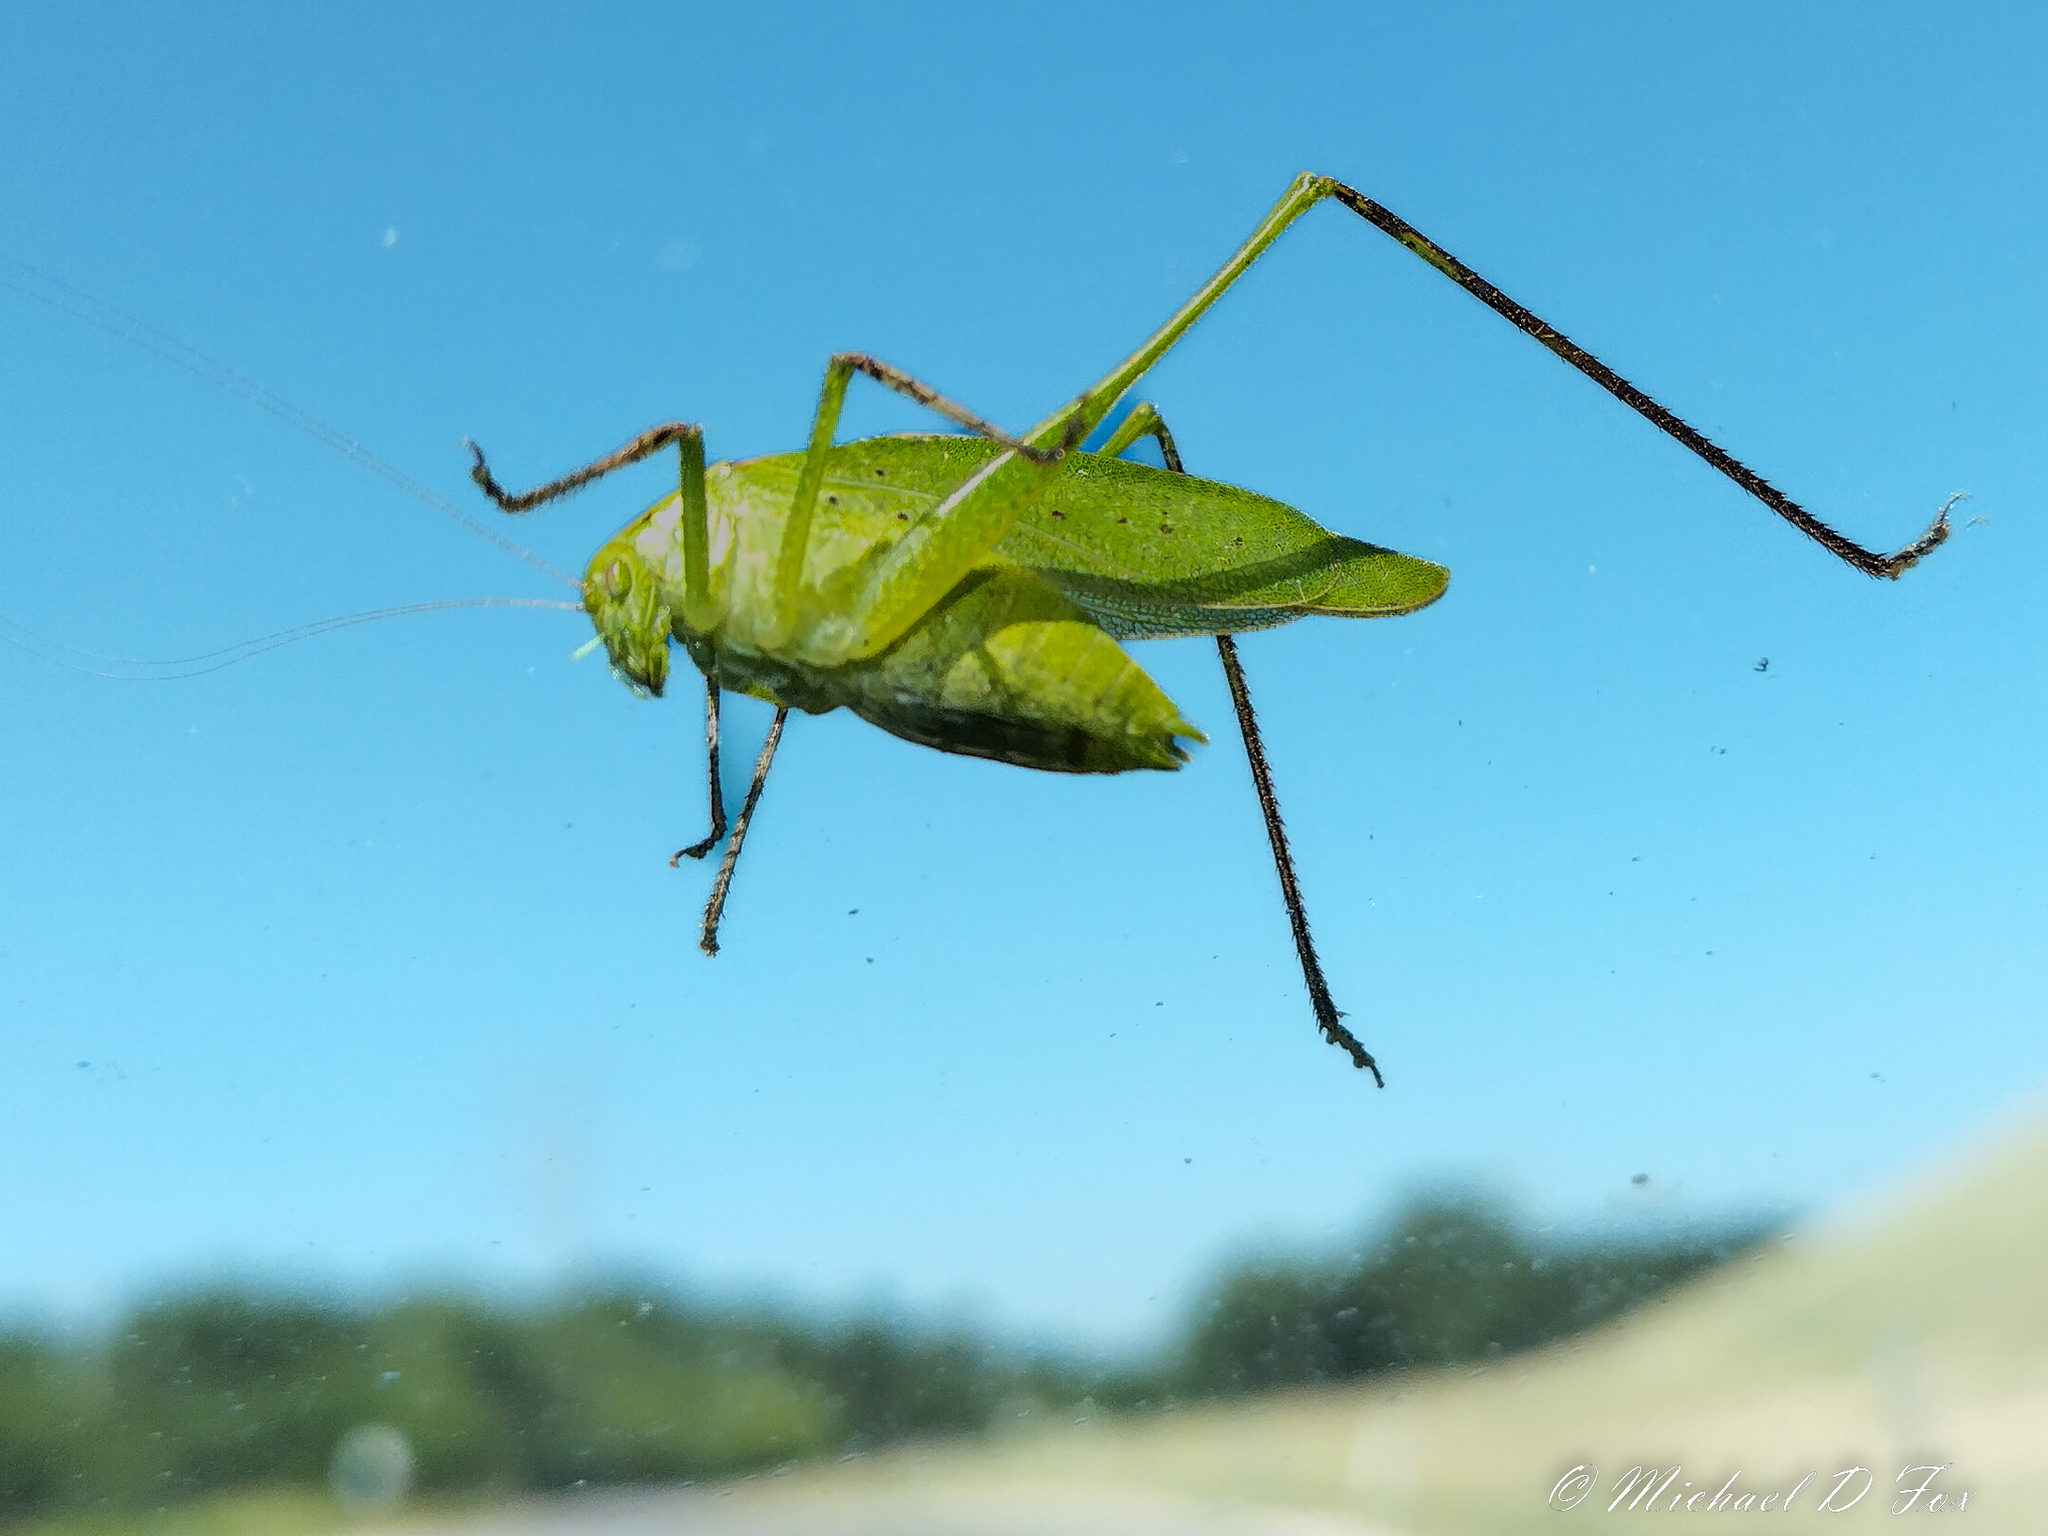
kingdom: Animalia
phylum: Arthropoda
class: Insecta
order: Orthoptera
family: Tettigoniidae
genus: Amblycorypha
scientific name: Amblycorypha oblongifolia
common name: Oblong-winged katydid
